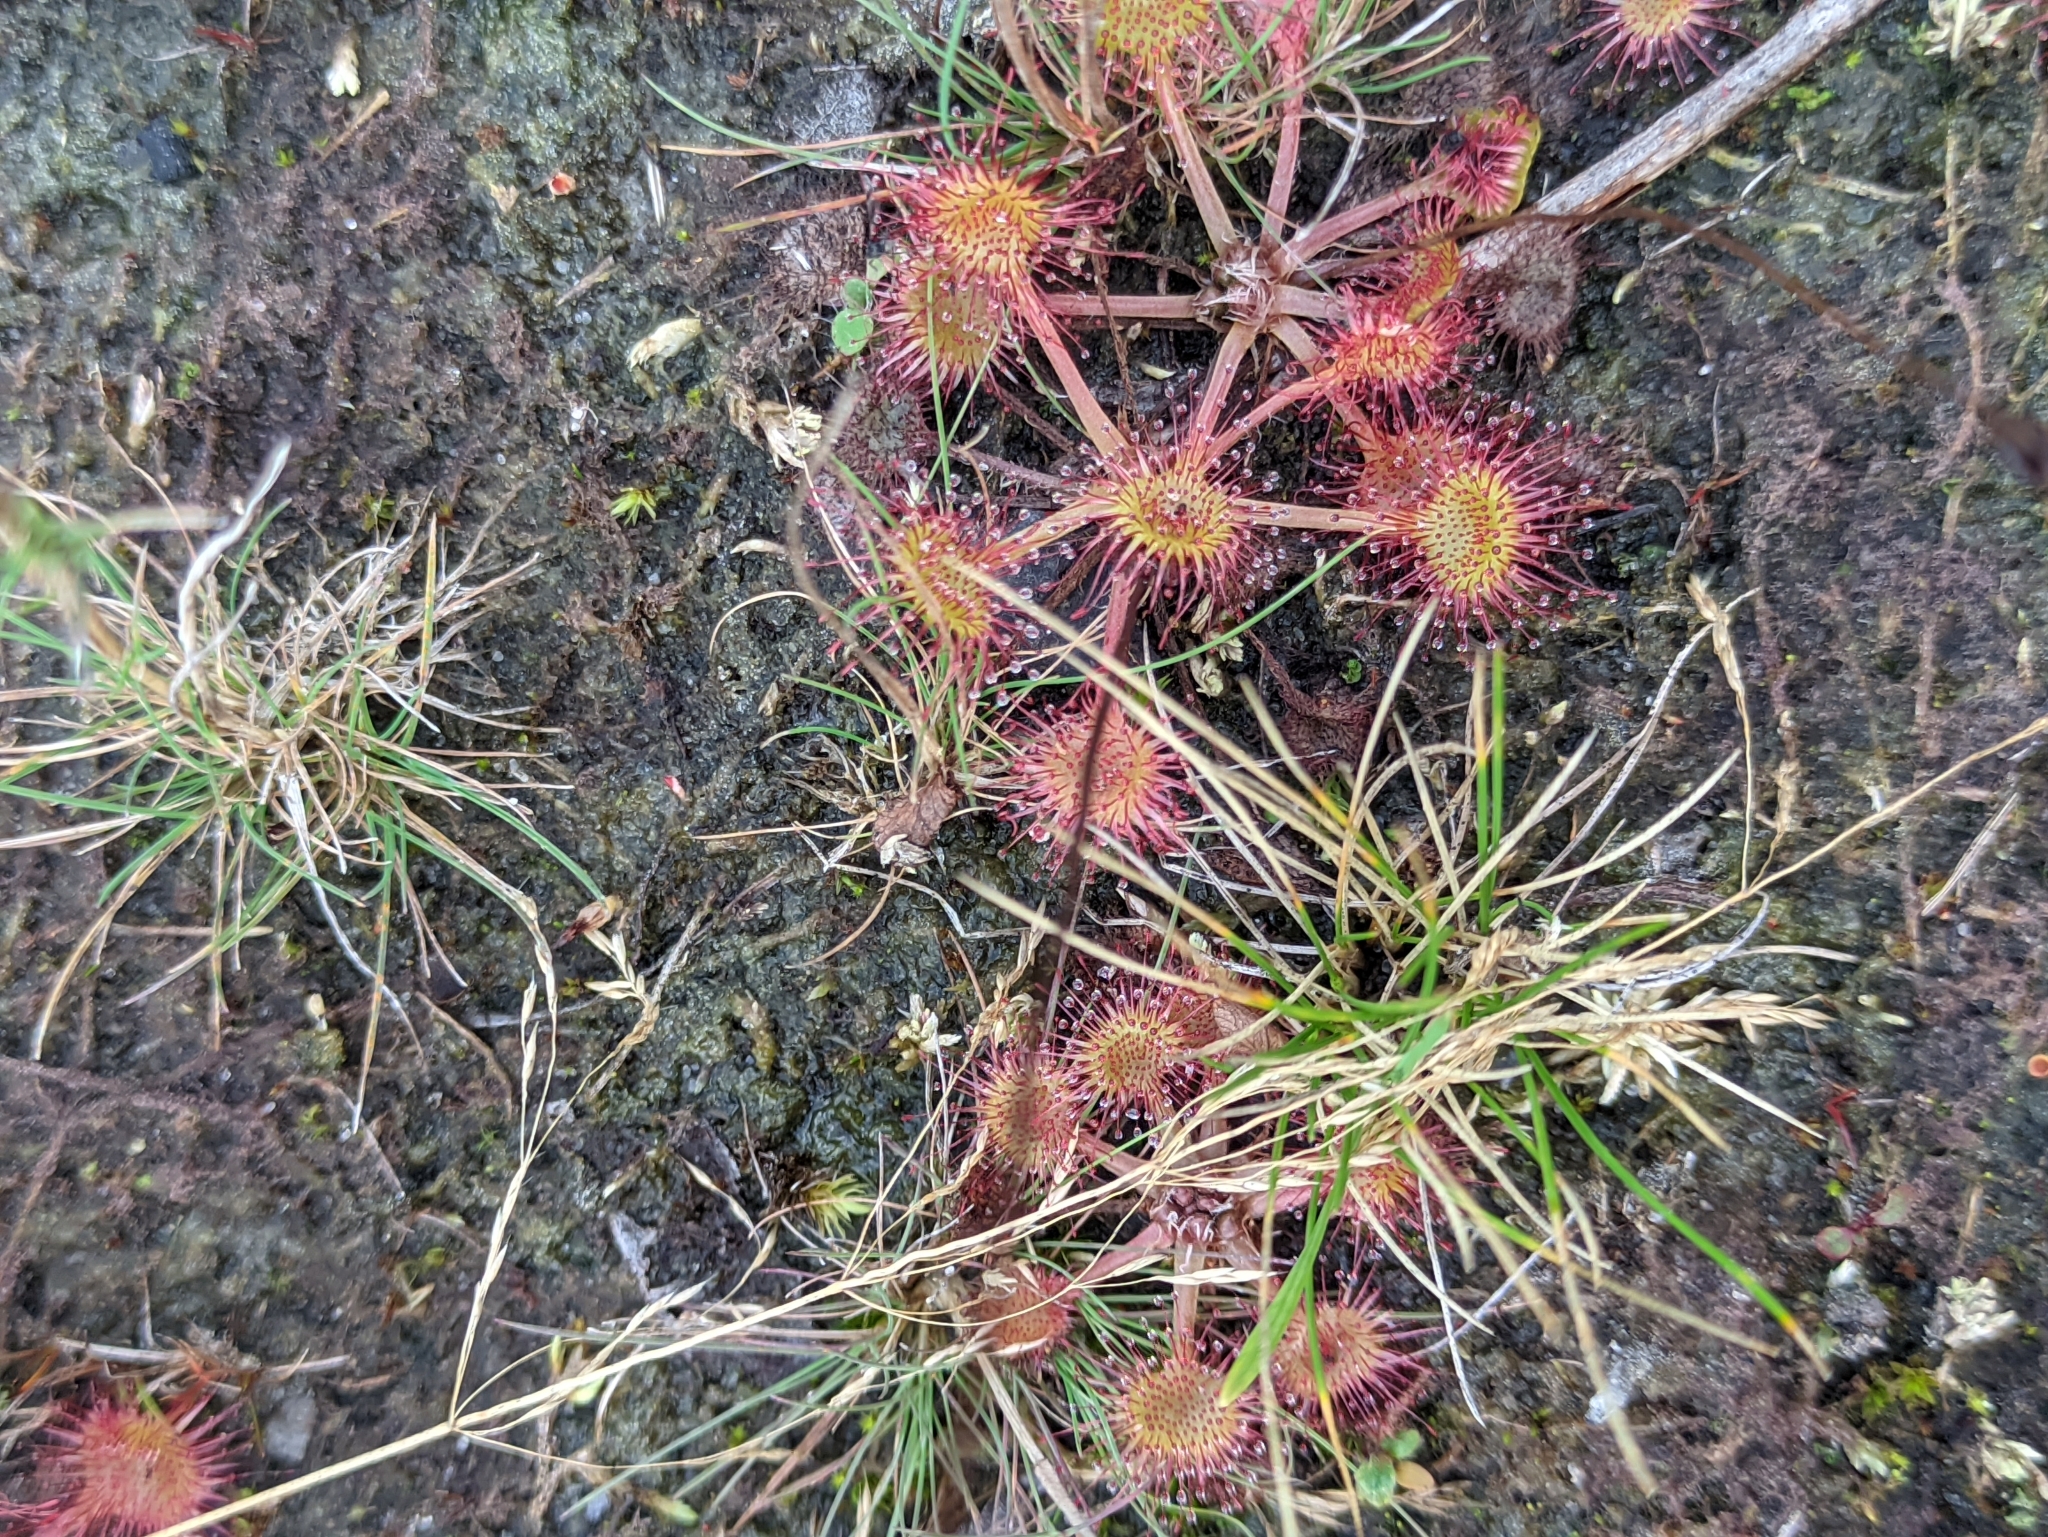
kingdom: Plantae
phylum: Tracheophyta
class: Magnoliopsida
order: Caryophyllales
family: Droseraceae
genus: Drosera
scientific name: Drosera rotundifolia
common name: Round-leaved sundew
